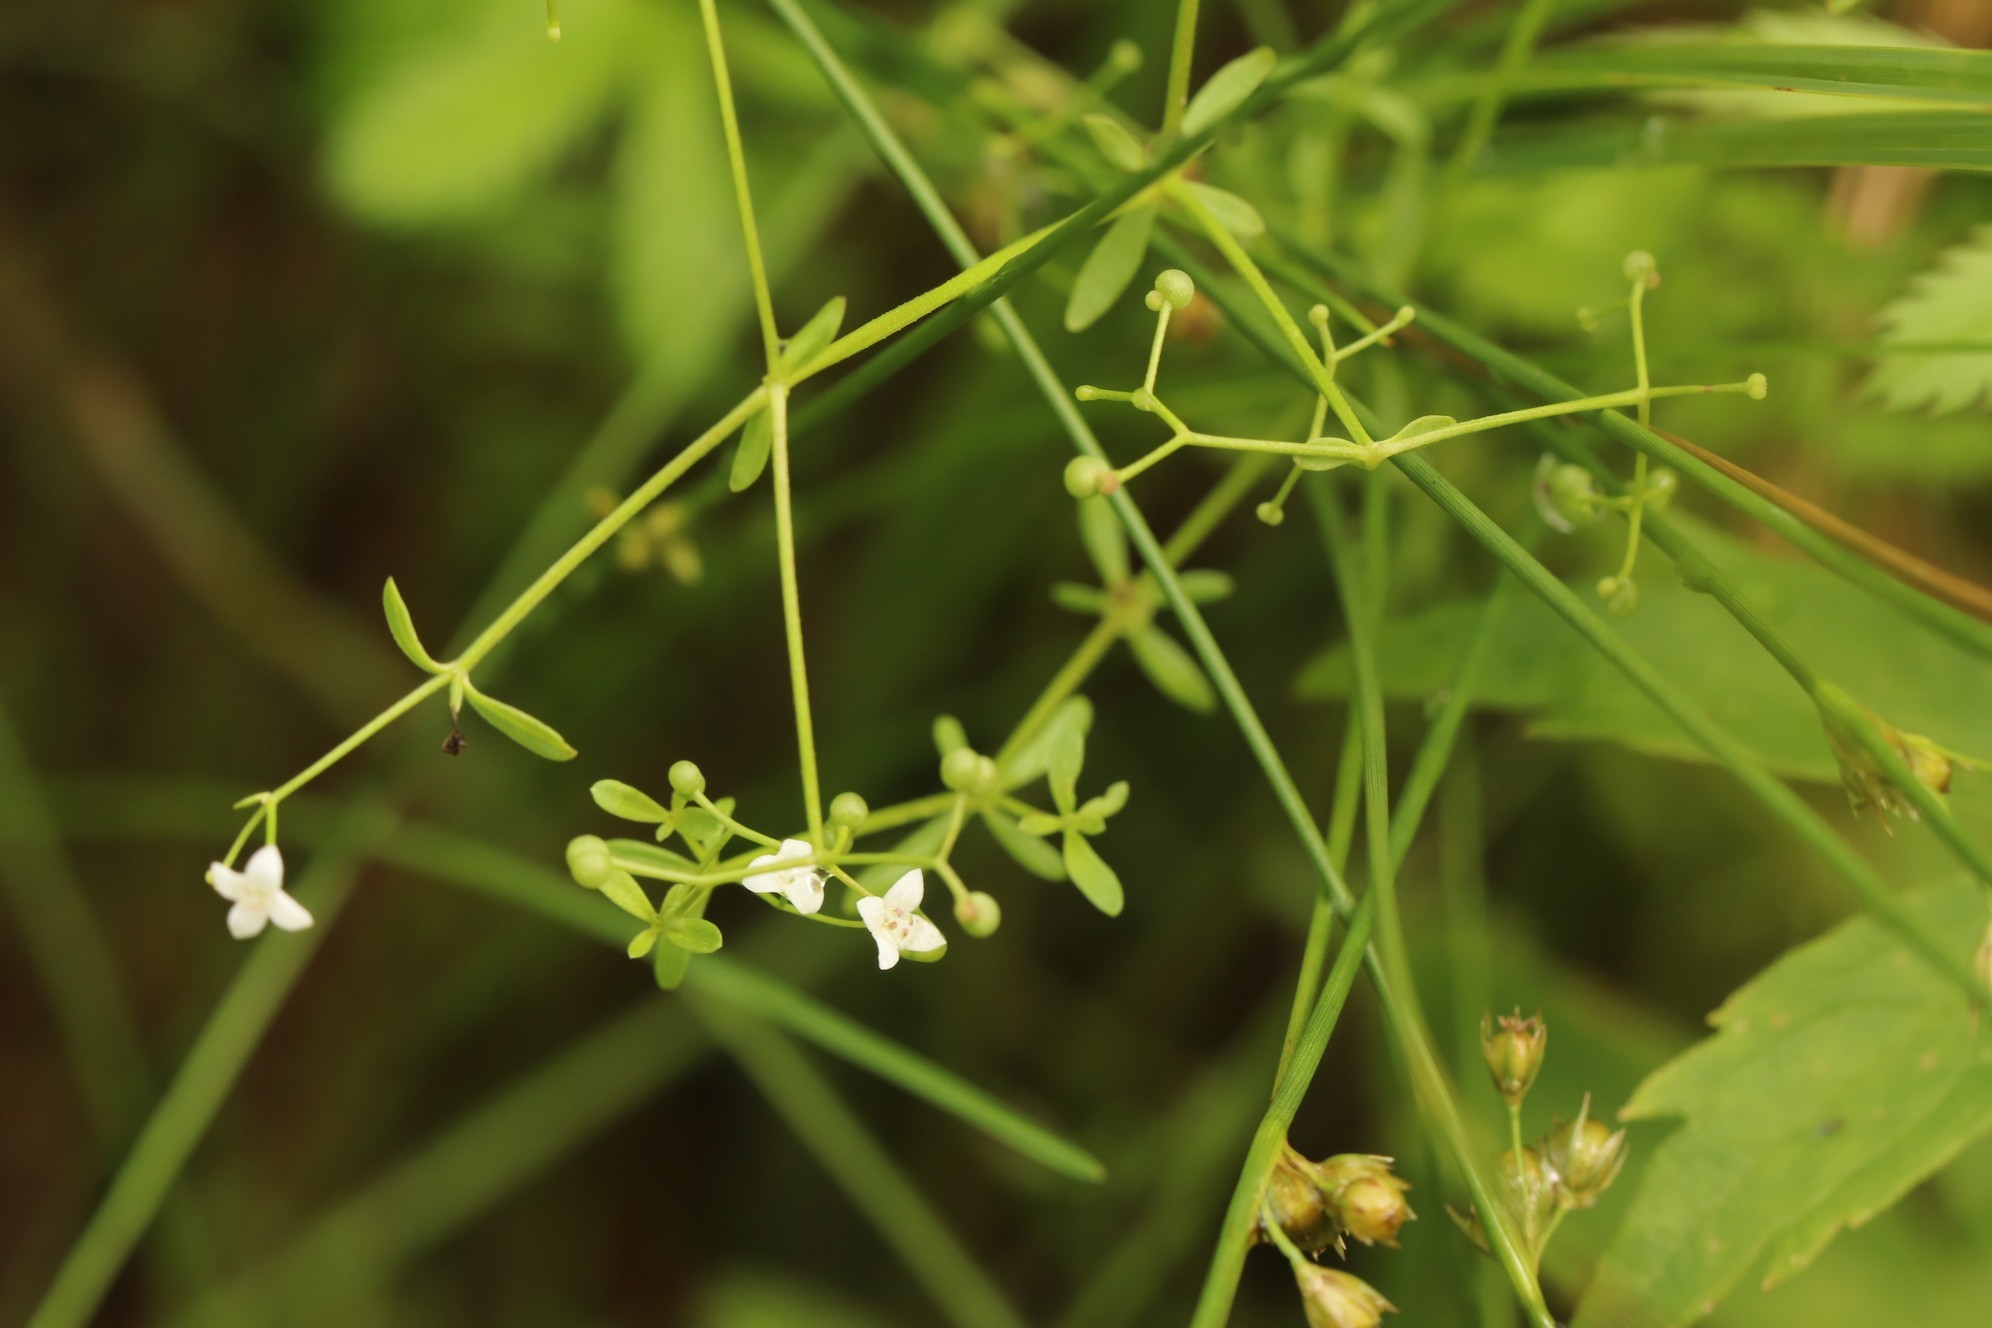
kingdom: Plantae
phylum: Tracheophyta
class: Magnoliopsida
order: Gentianales
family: Rubiaceae
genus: Galium
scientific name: Galium palustre
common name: Common marsh-bedstraw
